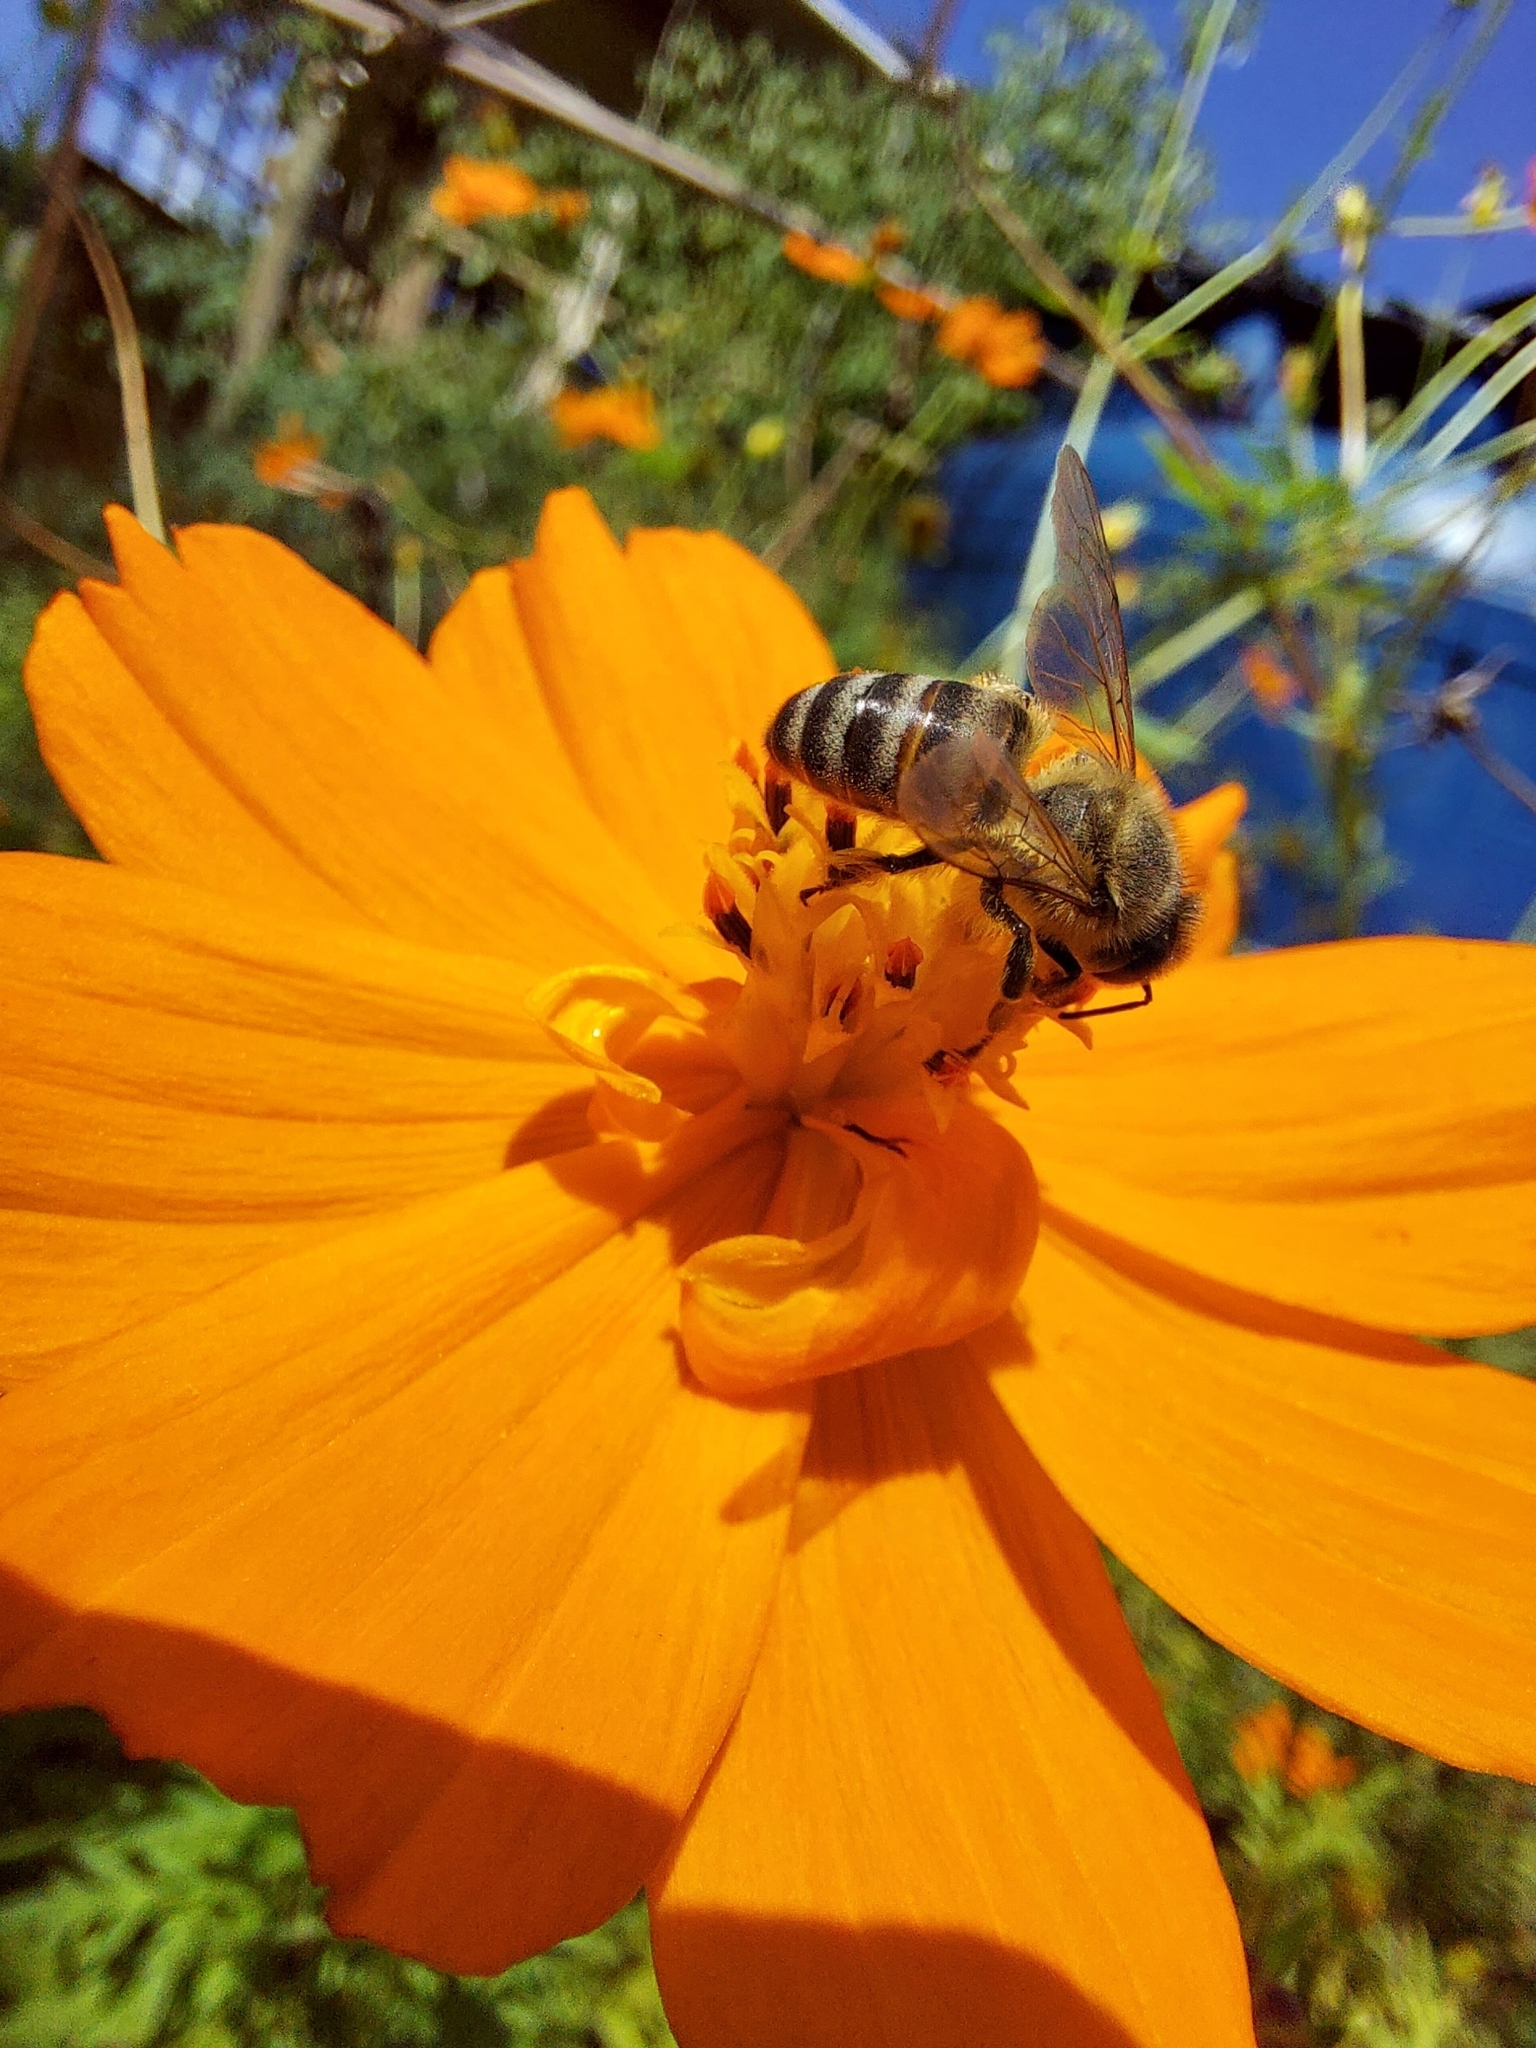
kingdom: Animalia
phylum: Arthropoda
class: Insecta
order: Hymenoptera
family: Apidae
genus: Apis
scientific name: Apis mellifera
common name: Honey bee
